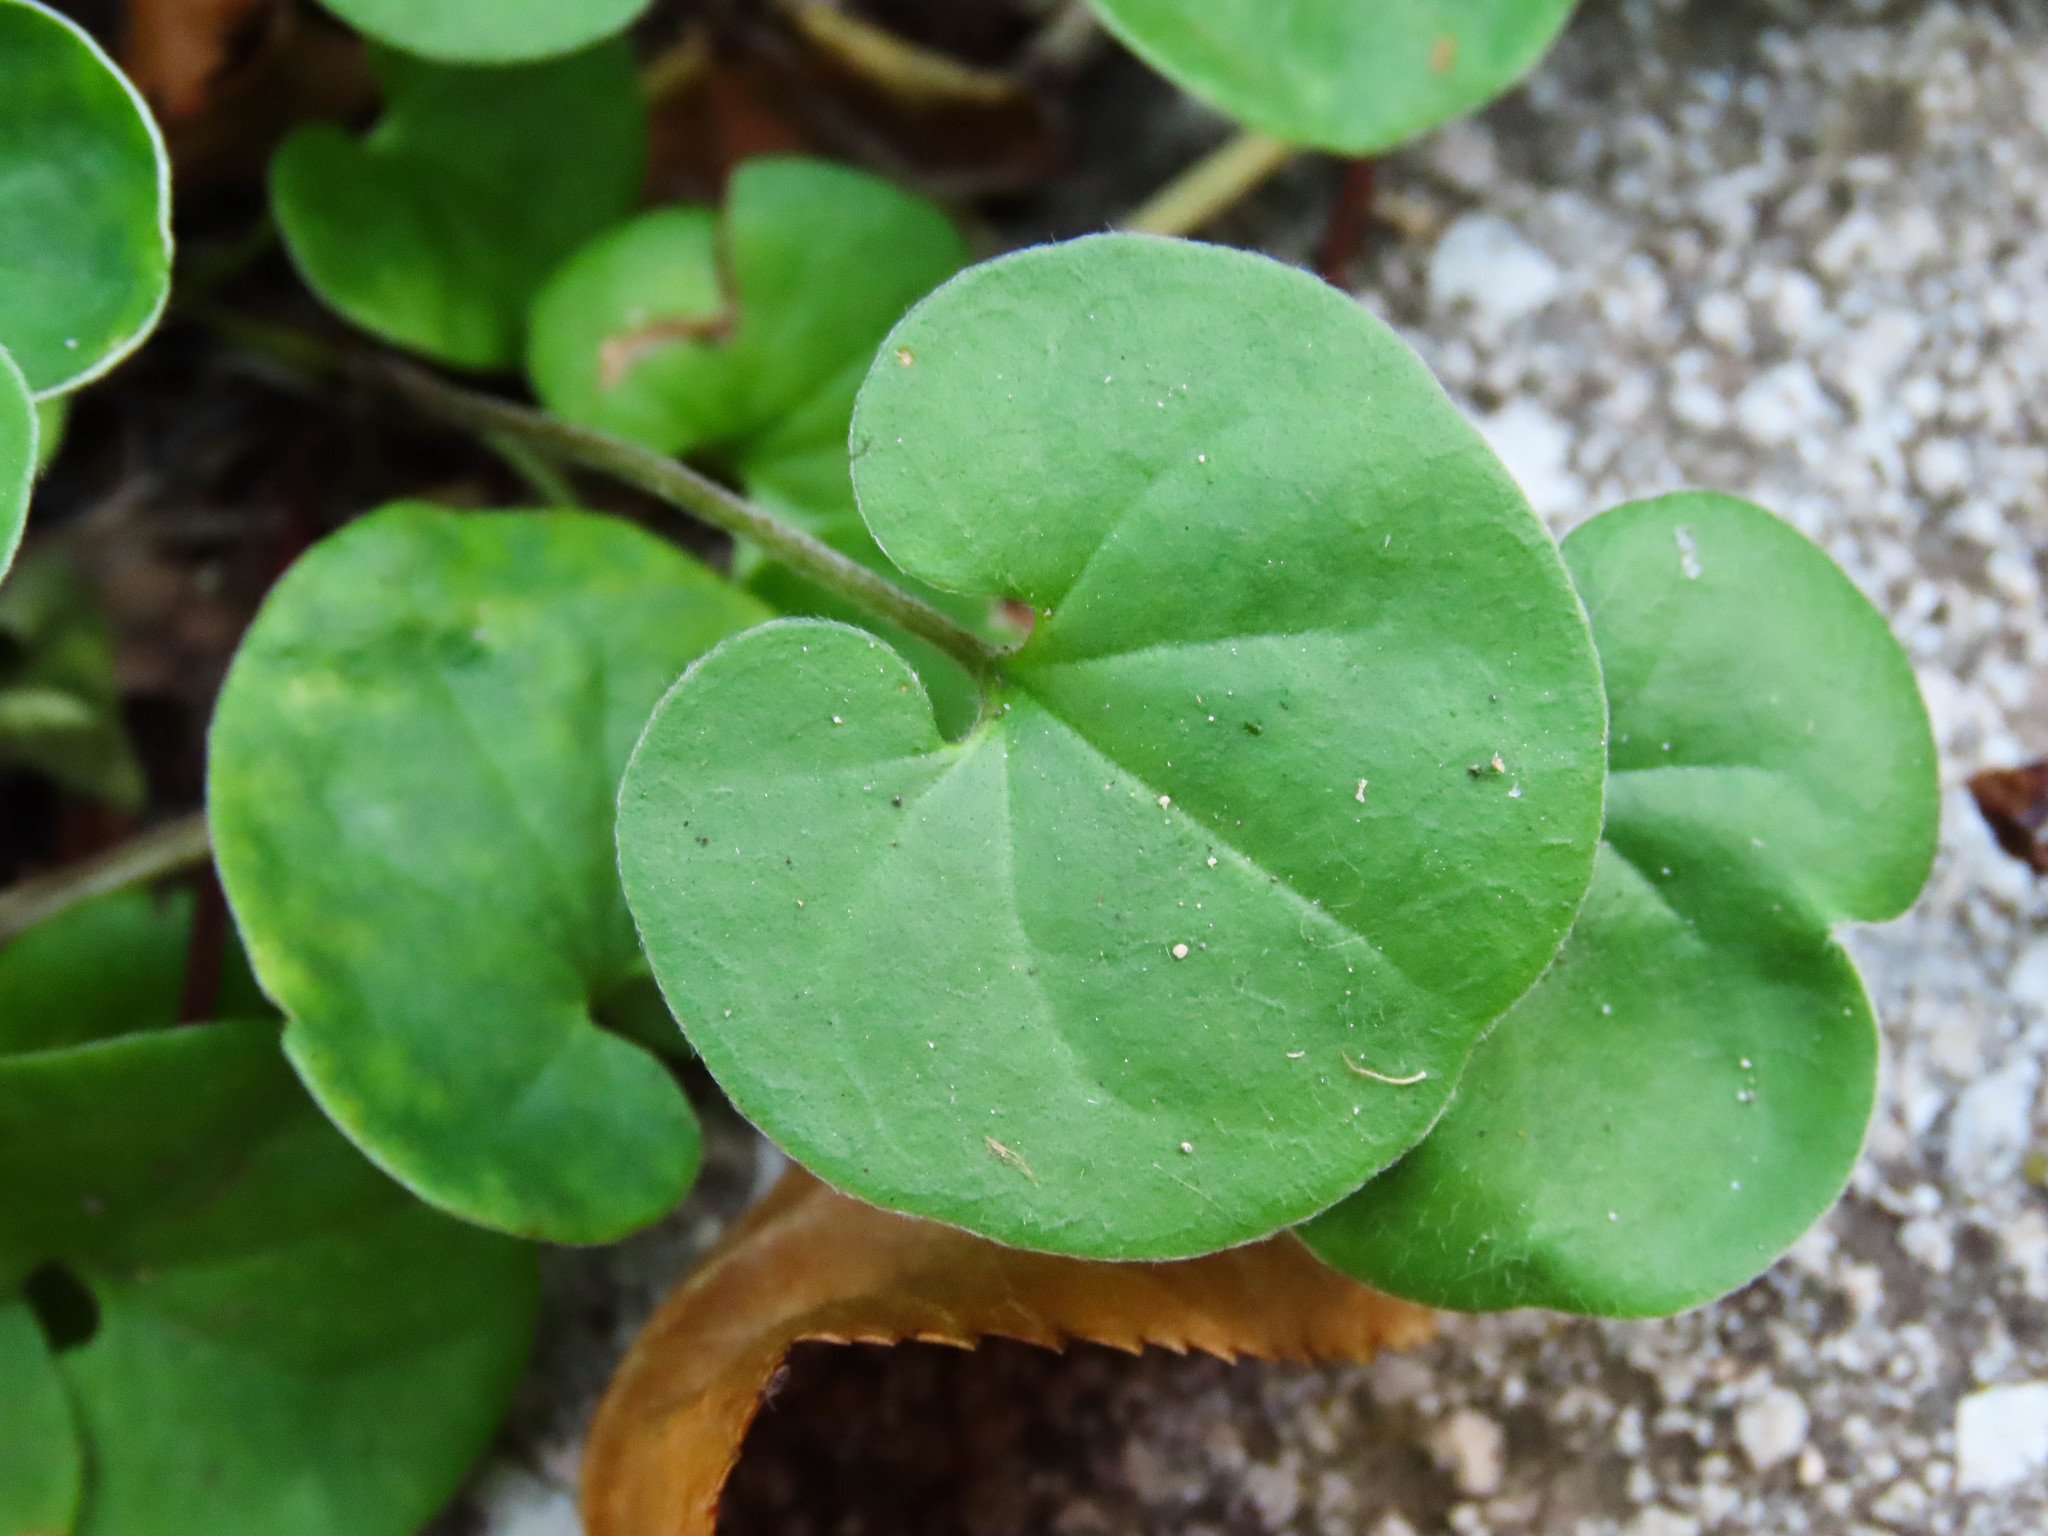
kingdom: Plantae
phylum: Tracheophyta
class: Magnoliopsida
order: Solanales
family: Convolvulaceae
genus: Dichondra
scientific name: Dichondra micrantha
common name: Kidneyweed
